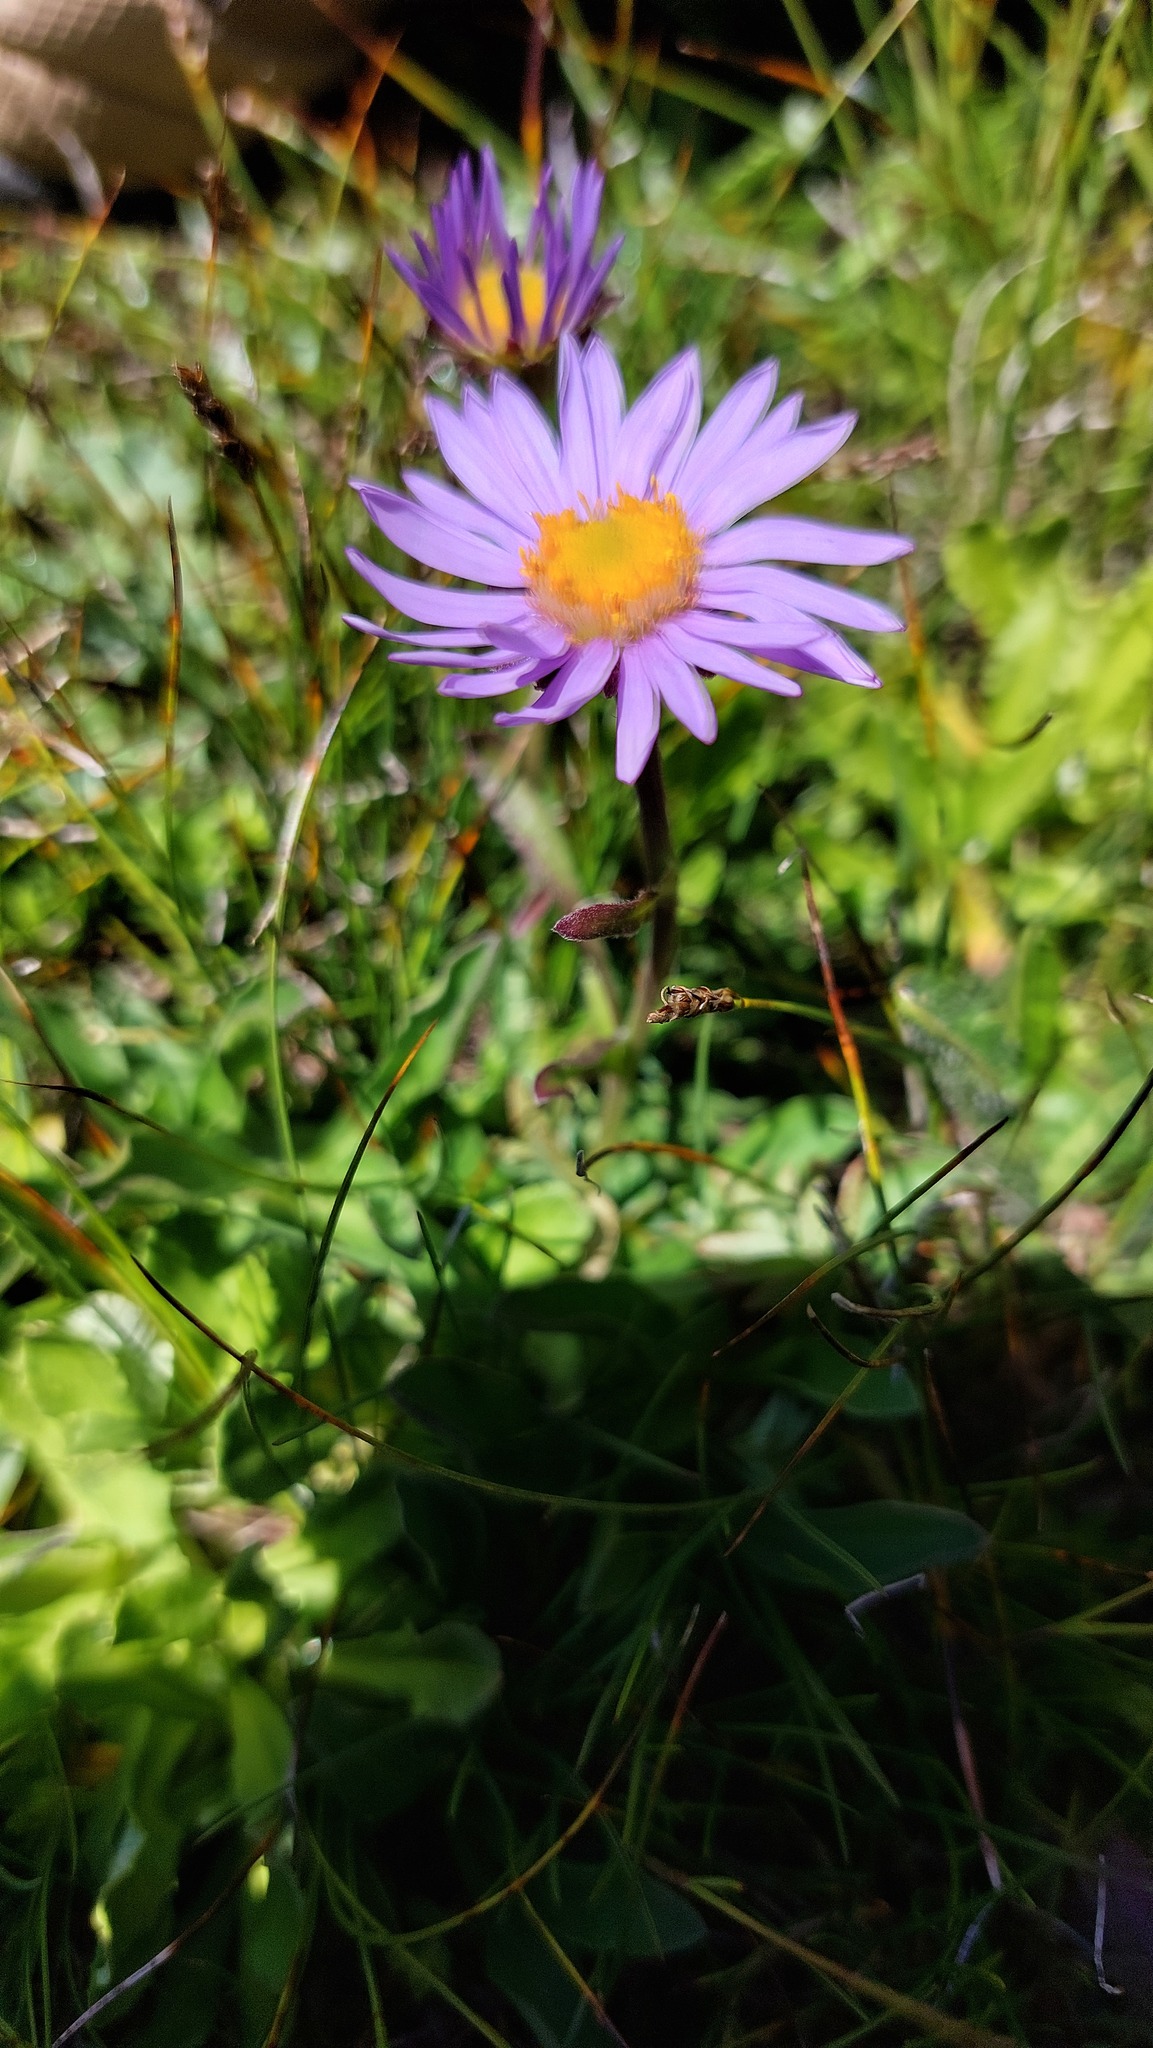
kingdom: Plantae
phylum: Tracheophyta
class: Magnoliopsida
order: Asterales
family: Asteraceae
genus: Aster
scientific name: Aster alpinus
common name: Alpine aster
